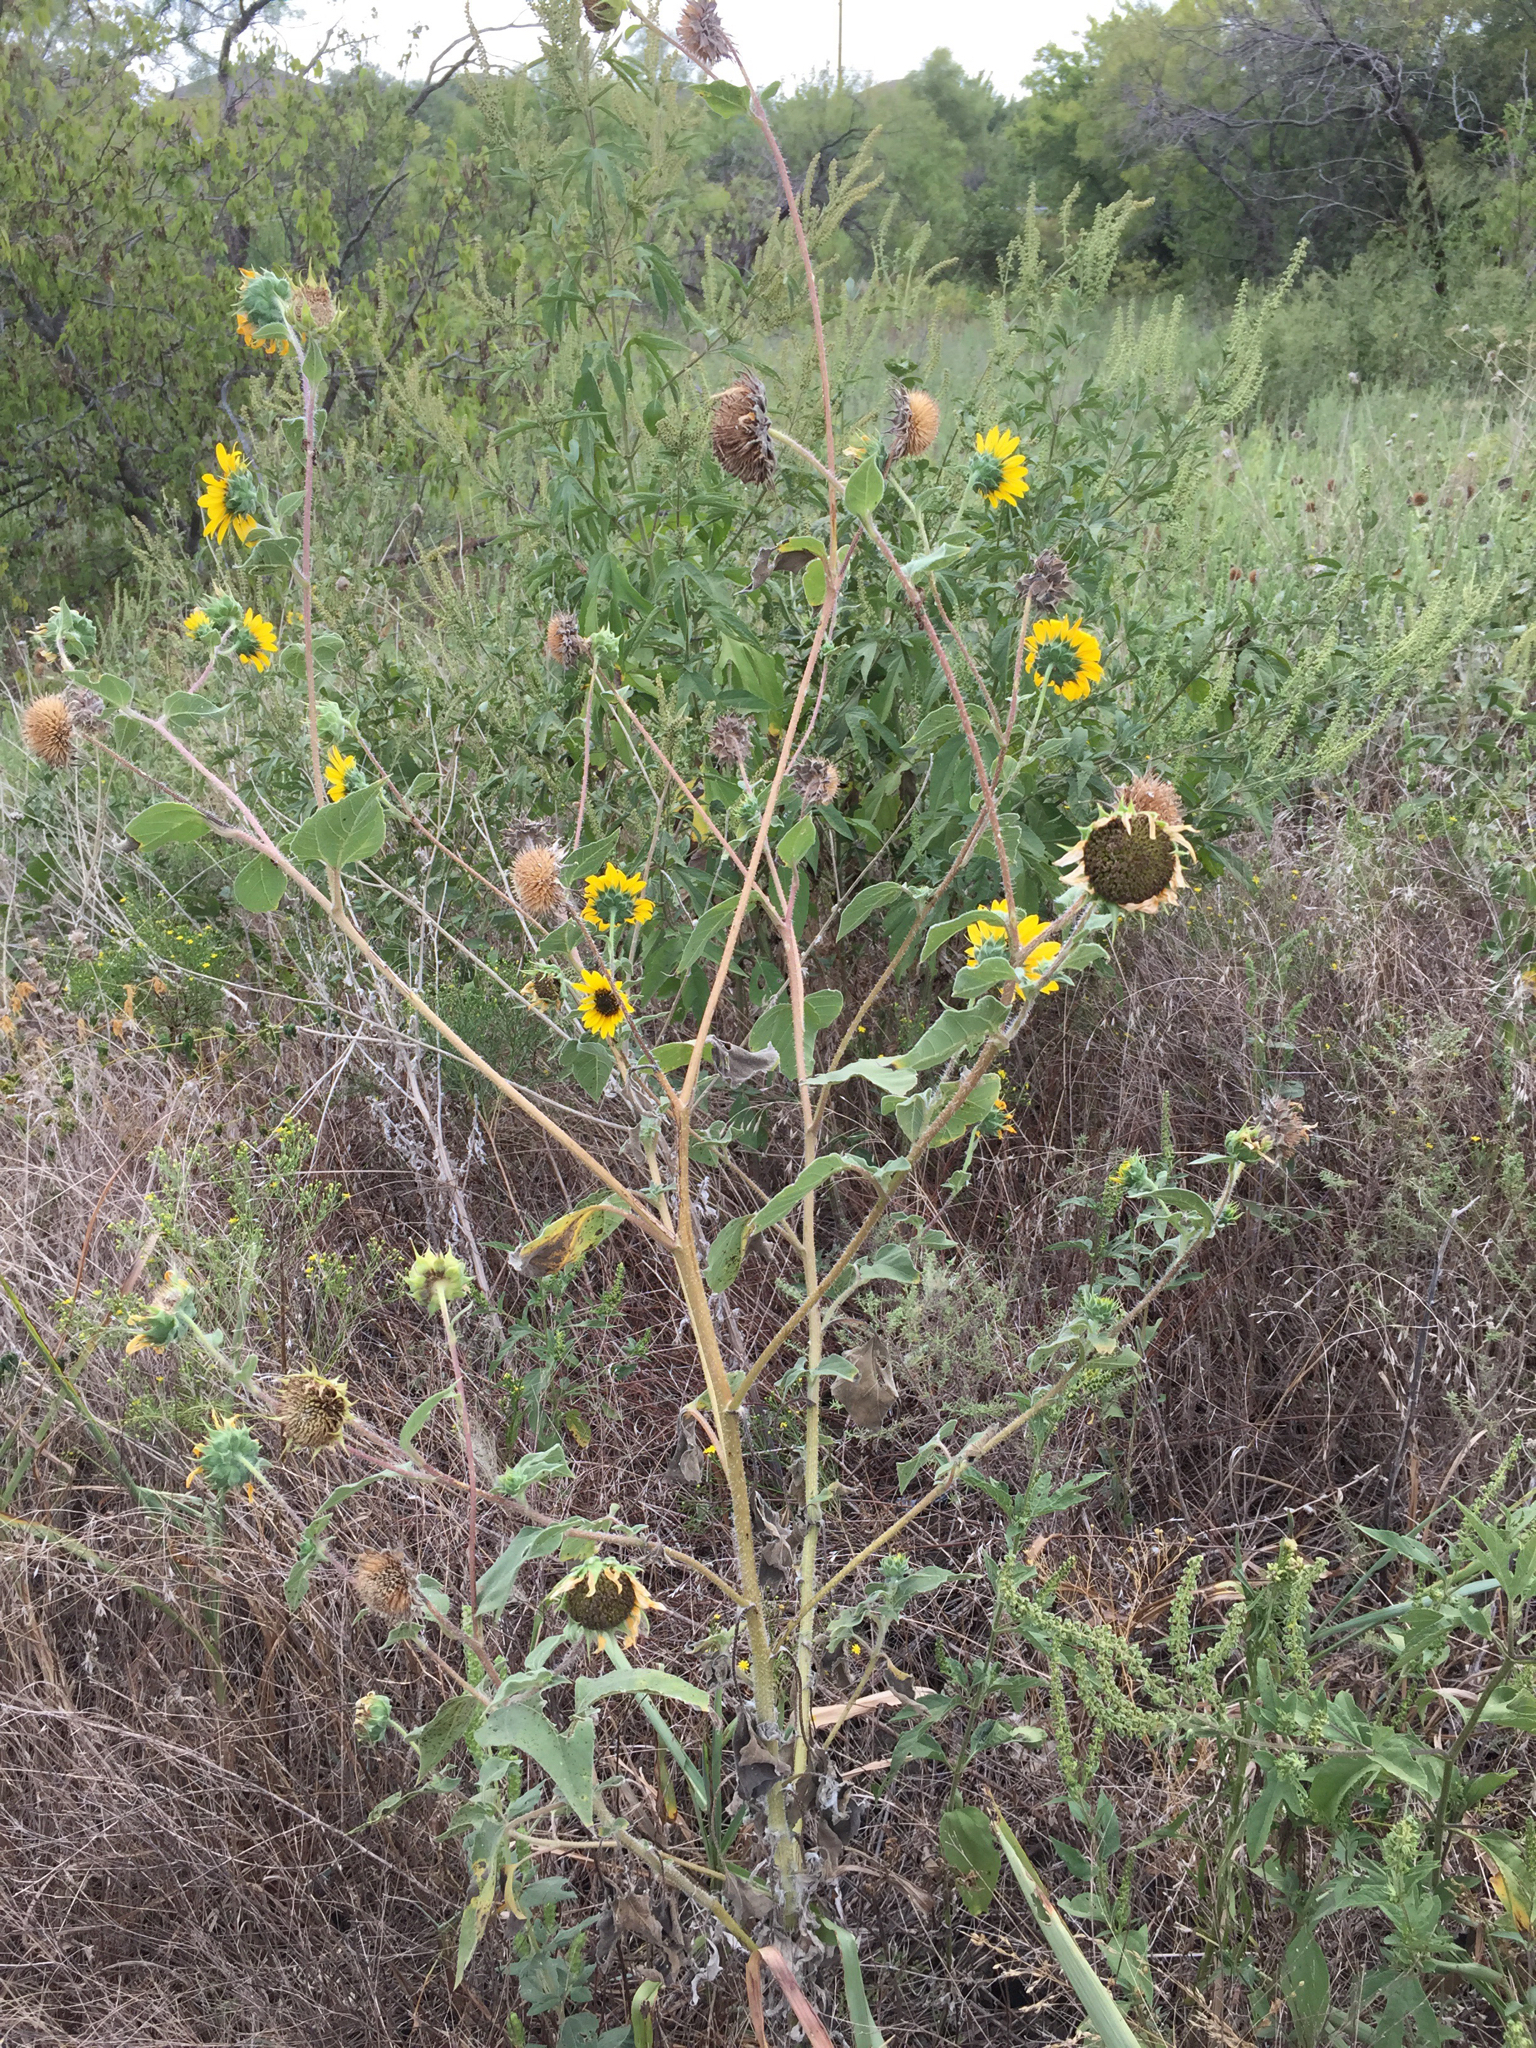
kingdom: Plantae
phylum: Tracheophyta
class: Magnoliopsida
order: Asterales
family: Asteraceae
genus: Helianthus
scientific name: Helianthus annuus
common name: Sunflower
